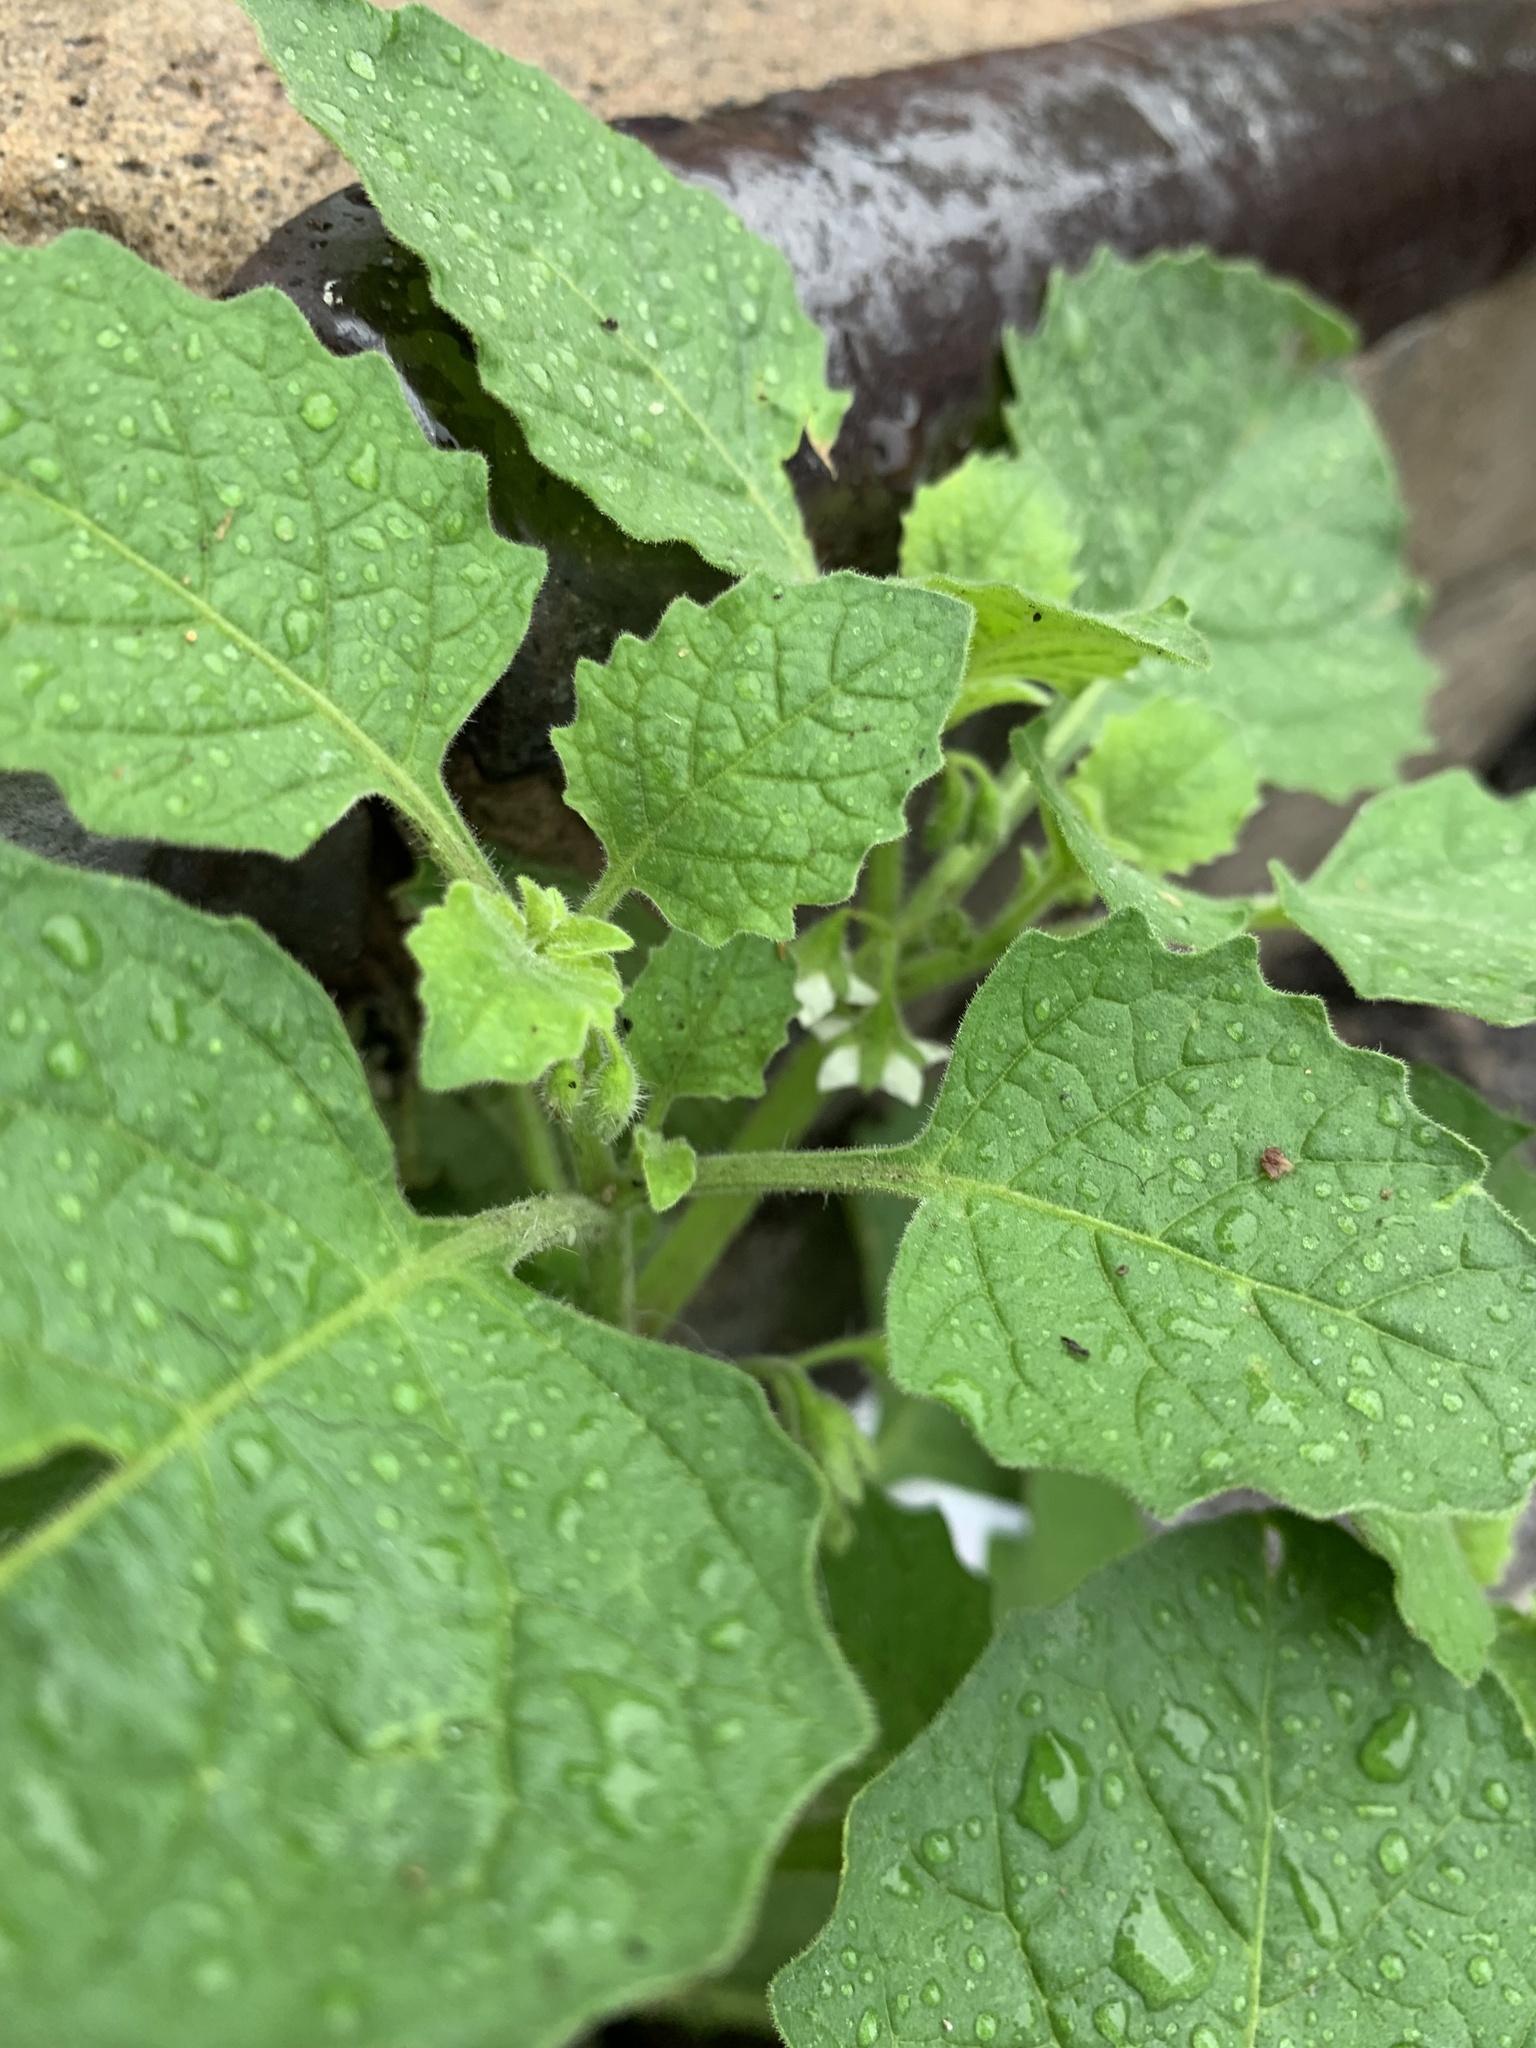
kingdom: Plantae
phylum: Tracheophyta
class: Magnoliopsida
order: Solanales
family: Solanaceae
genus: Solanum
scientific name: Solanum sarrachoides
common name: Leafy-fruited nightshade
